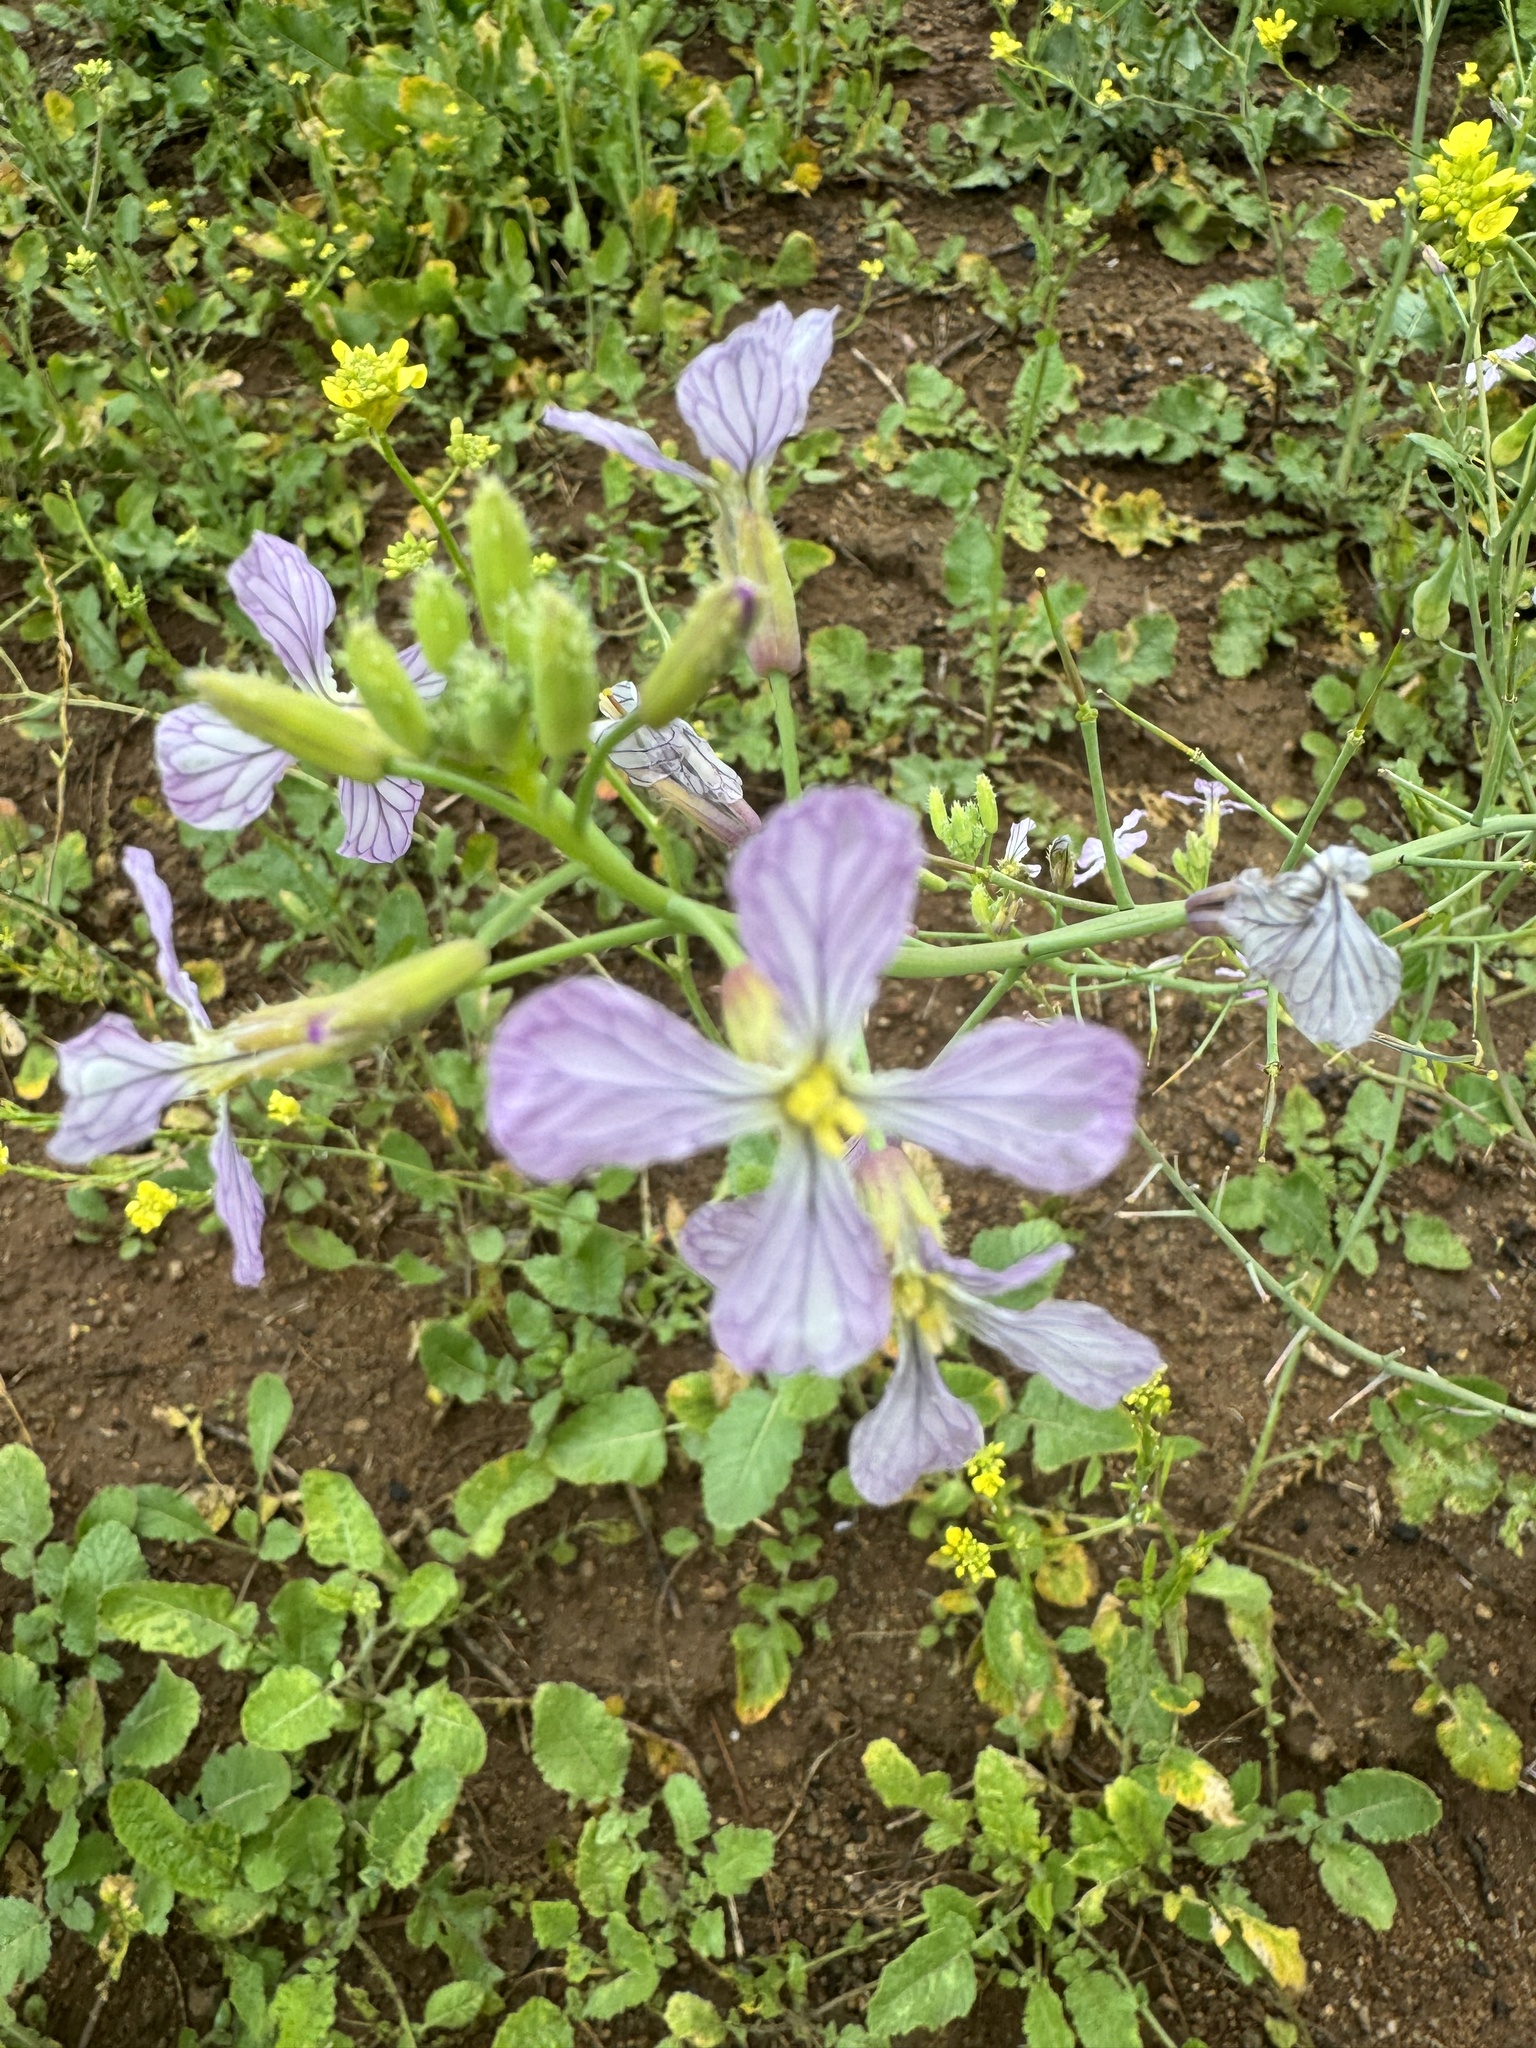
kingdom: Plantae
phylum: Tracheophyta
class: Magnoliopsida
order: Brassicales
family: Brassicaceae
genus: Raphanus
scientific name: Raphanus sativus
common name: Cultivated radish
